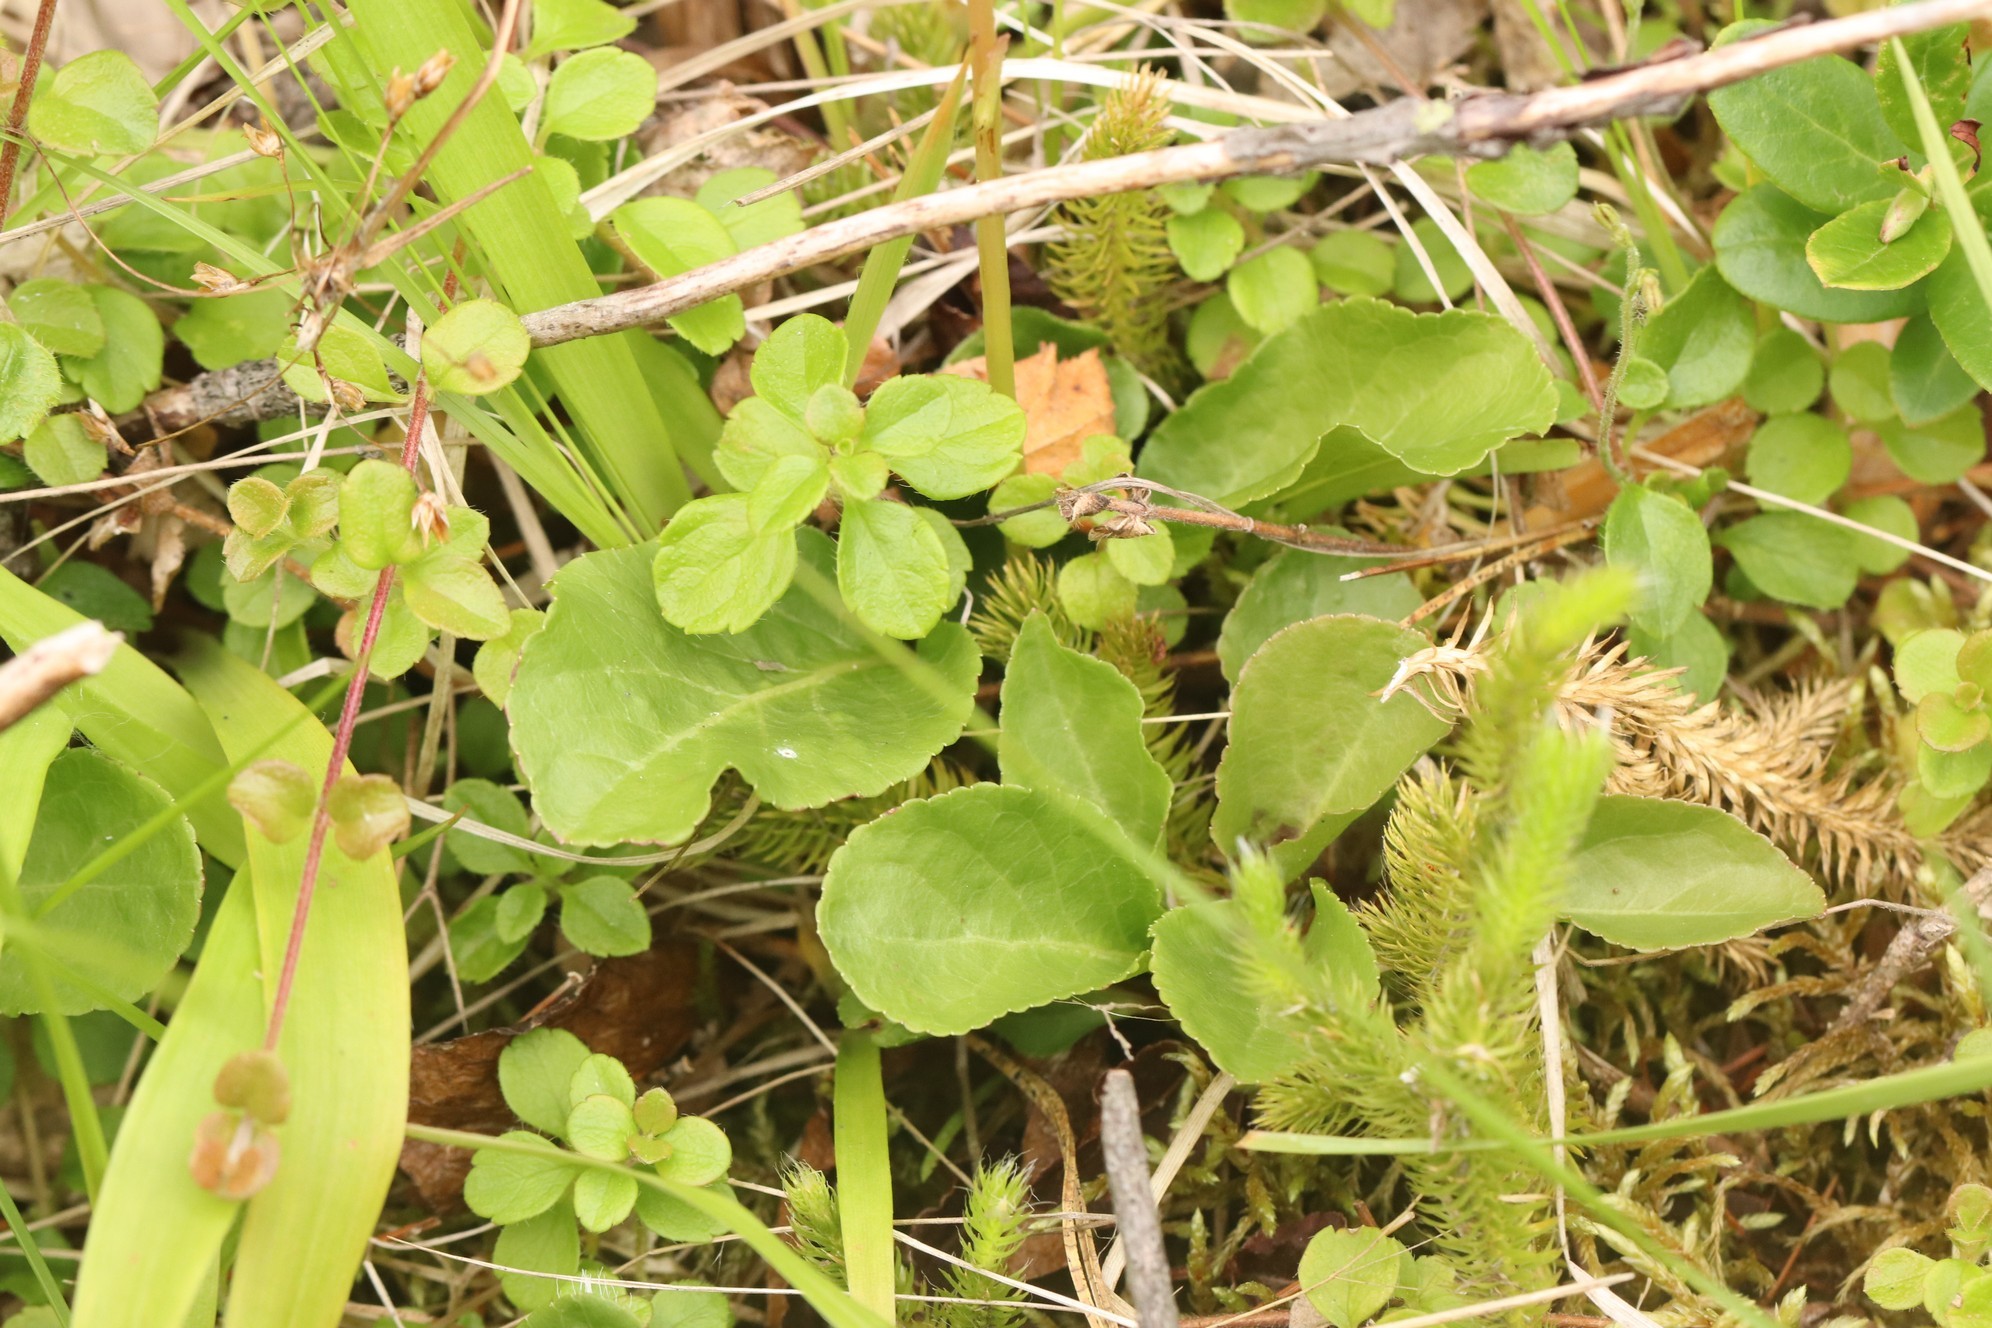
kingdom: Plantae
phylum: Tracheophyta
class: Magnoliopsida
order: Ericales
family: Ericaceae
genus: Pyrola
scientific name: Pyrola minor
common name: Common wintergreen
